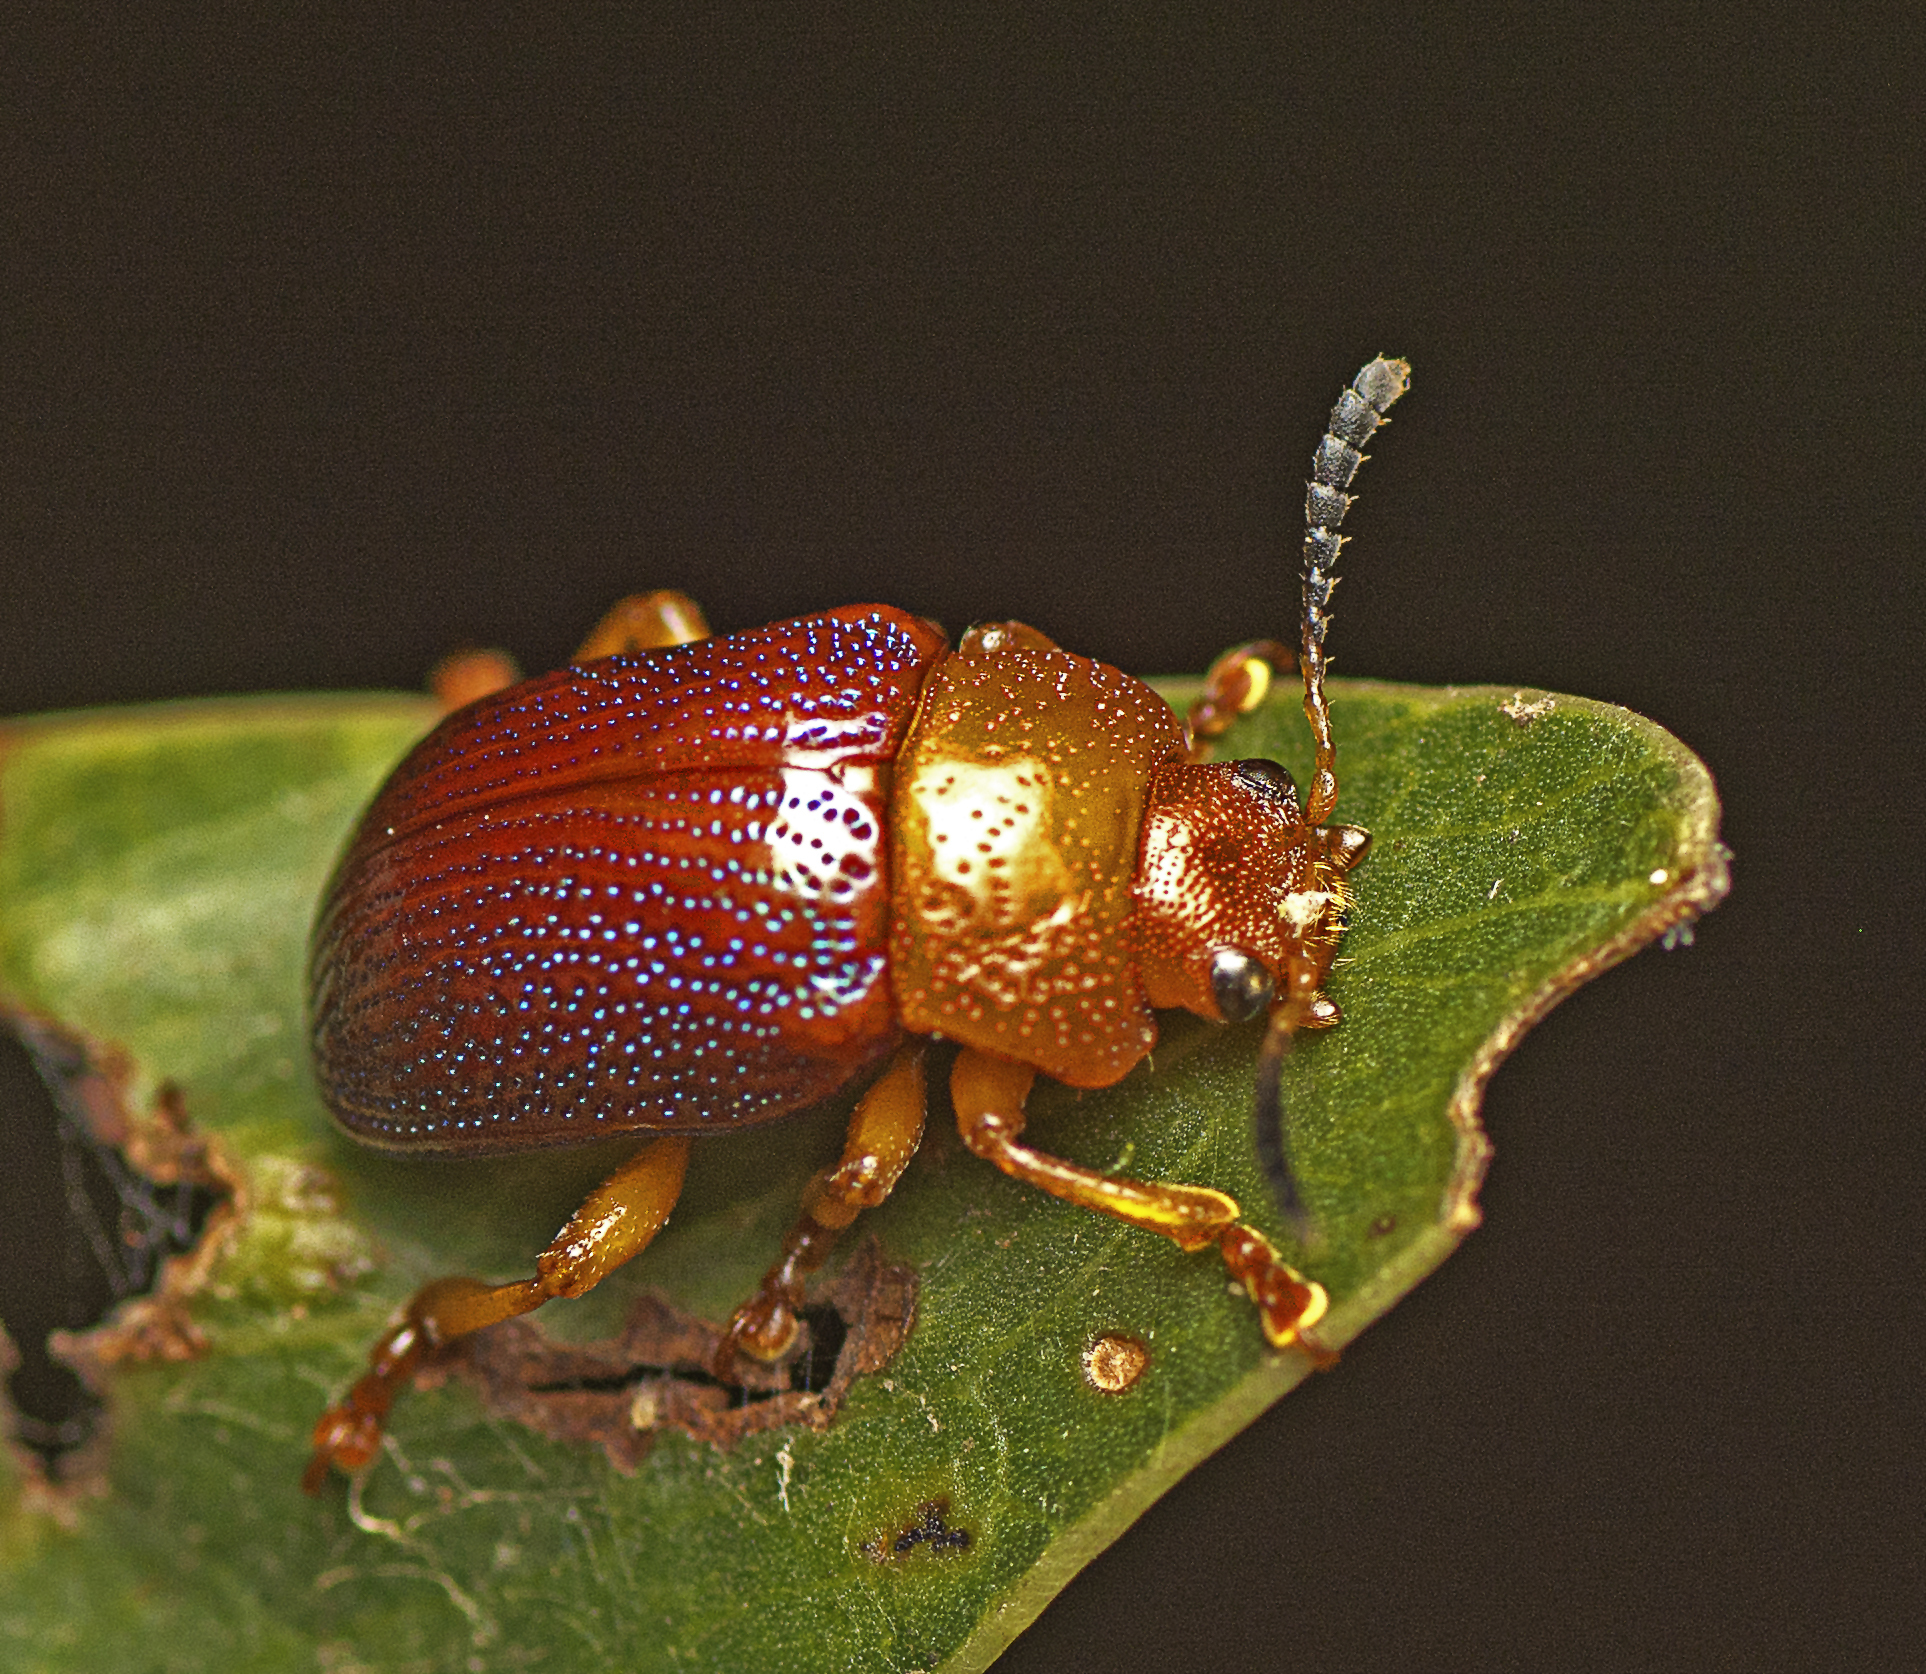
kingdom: Animalia
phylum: Arthropoda
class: Insecta
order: Coleoptera
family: Chrysomelidae
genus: Calomela
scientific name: Calomela
